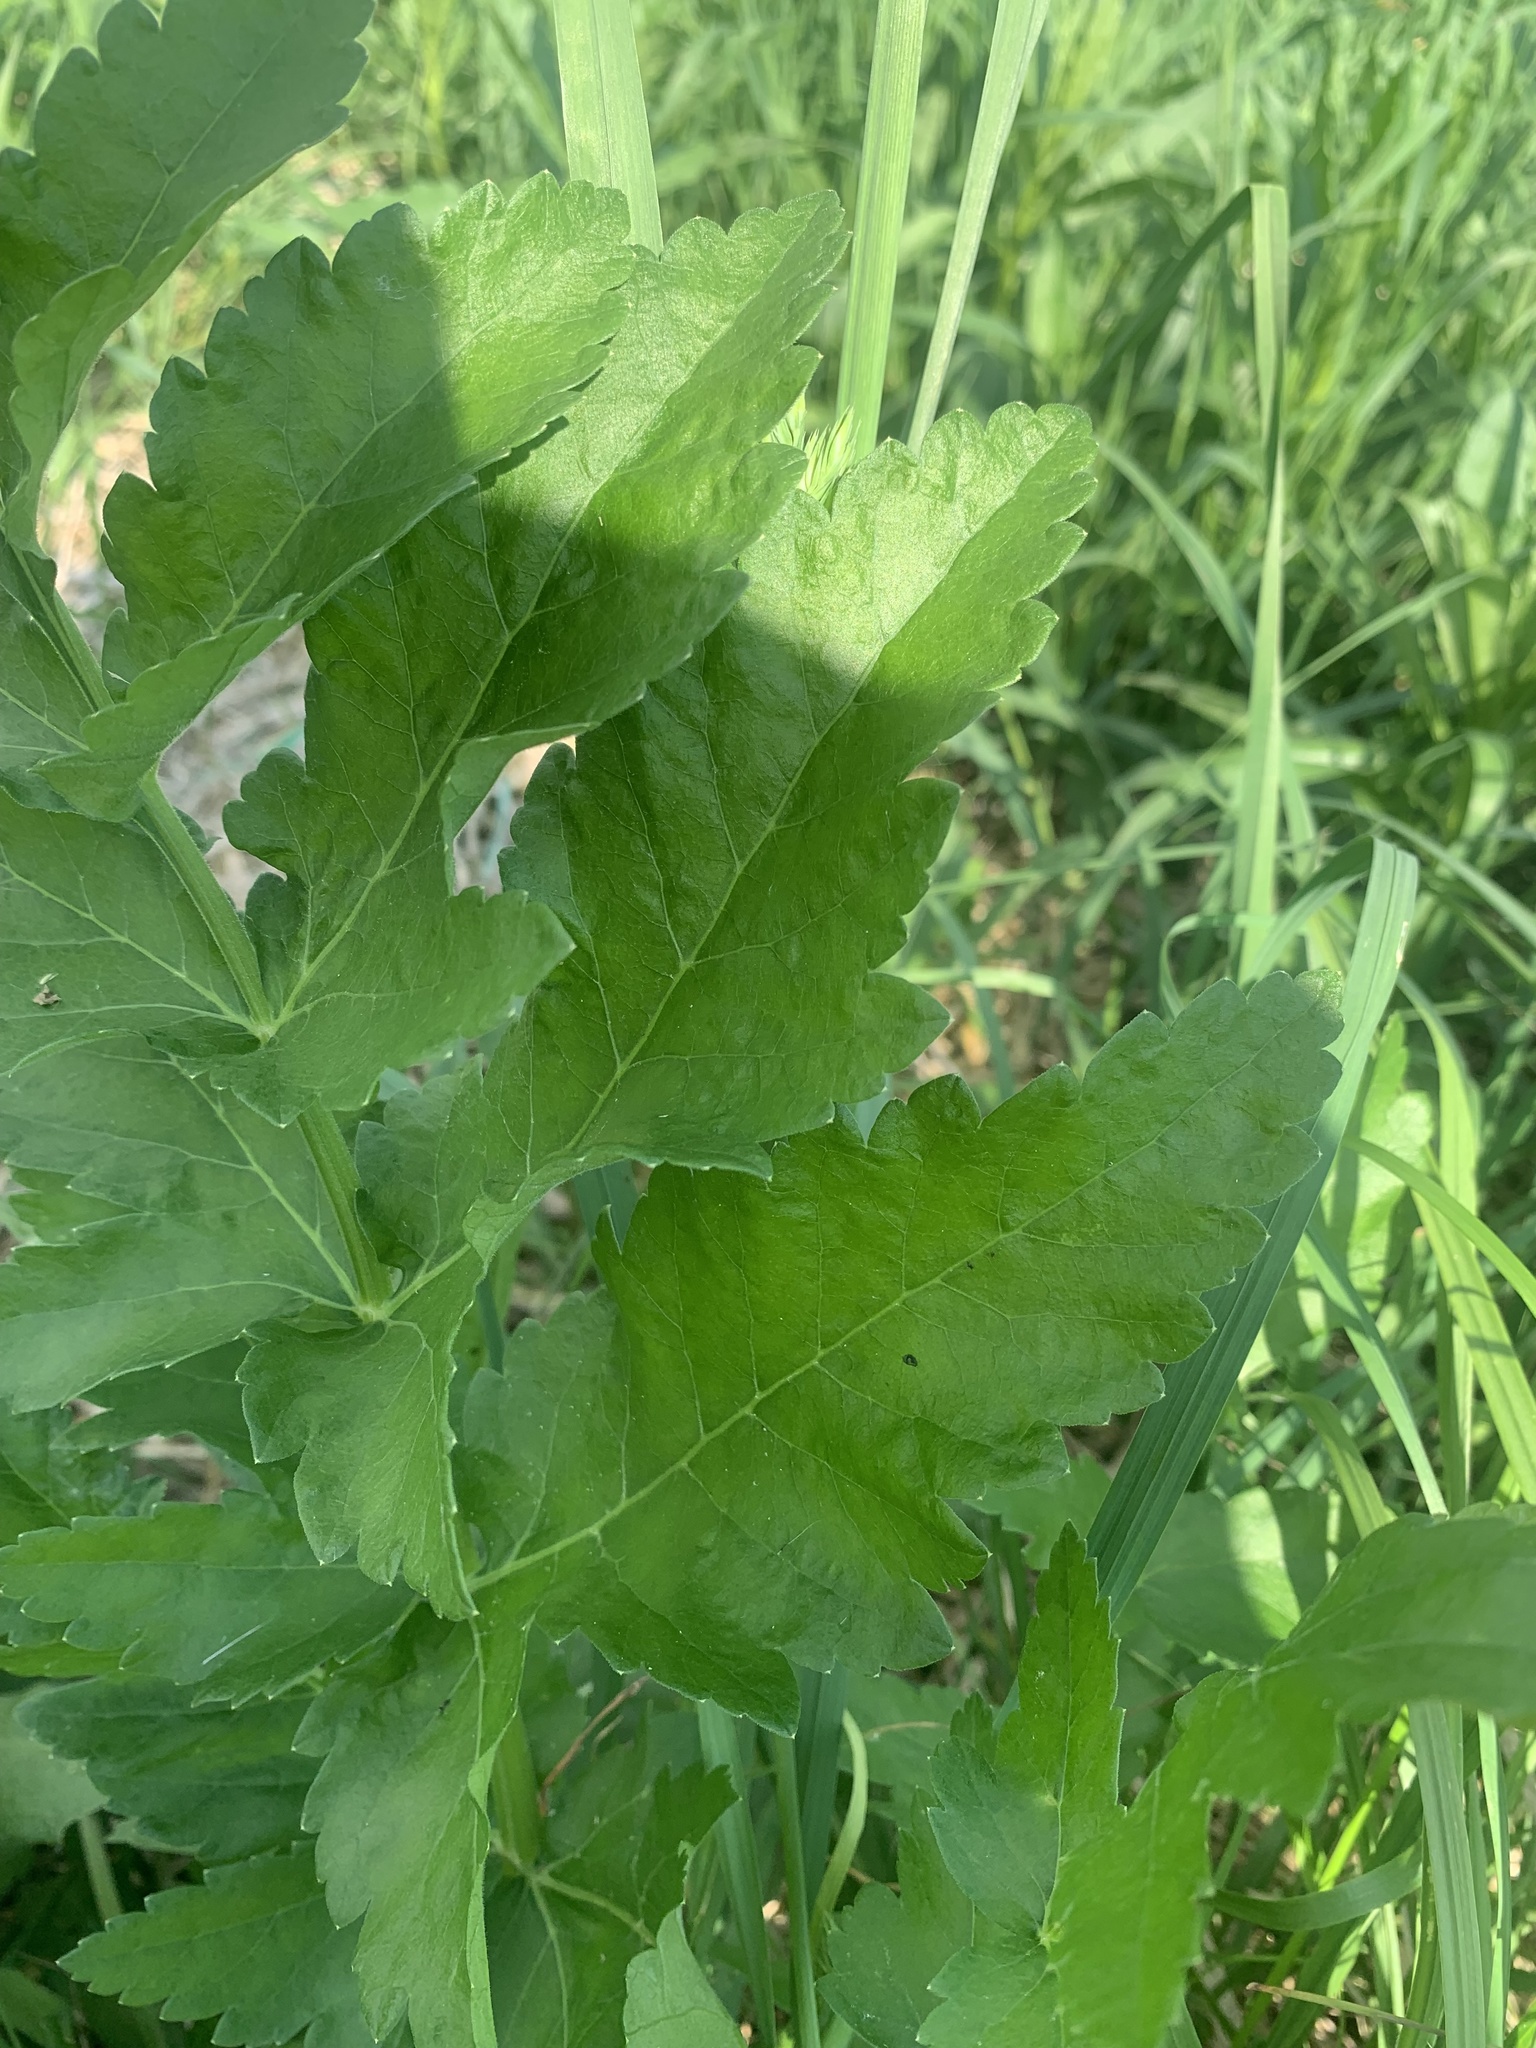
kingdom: Plantae
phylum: Tracheophyta
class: Magnoliopsida
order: Apiales
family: Apiaceae
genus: Pastinaca
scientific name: Pastinaca sativa
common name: Wild parsnip
